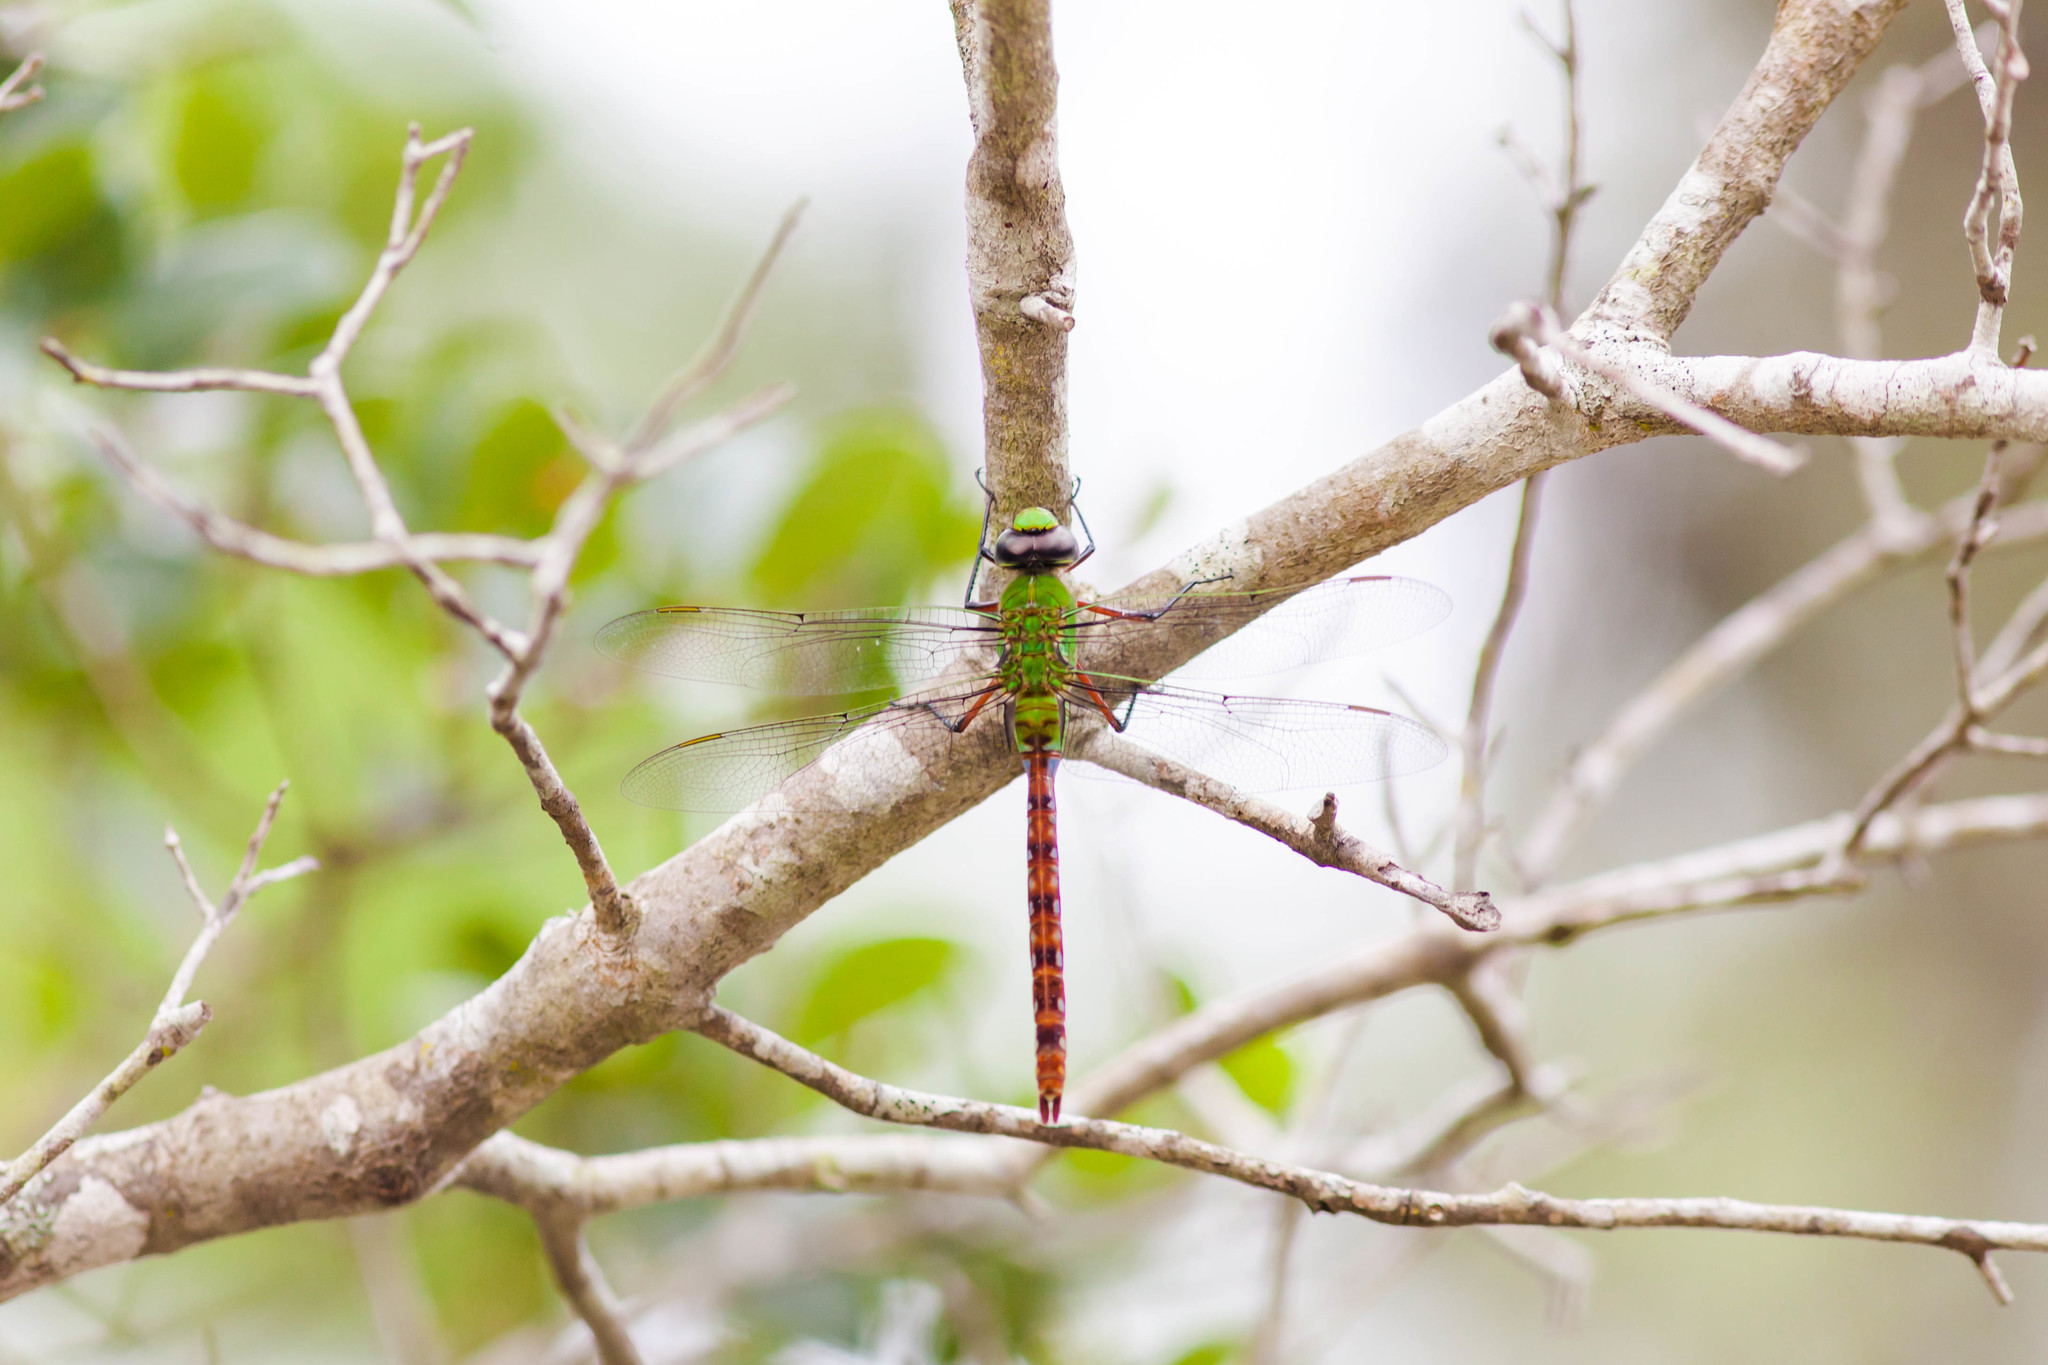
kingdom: Animalia
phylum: Arthropoda
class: Insecta
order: Odonata
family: Aeshnidae
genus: Anax
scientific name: Anax longipes
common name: Comet darner
